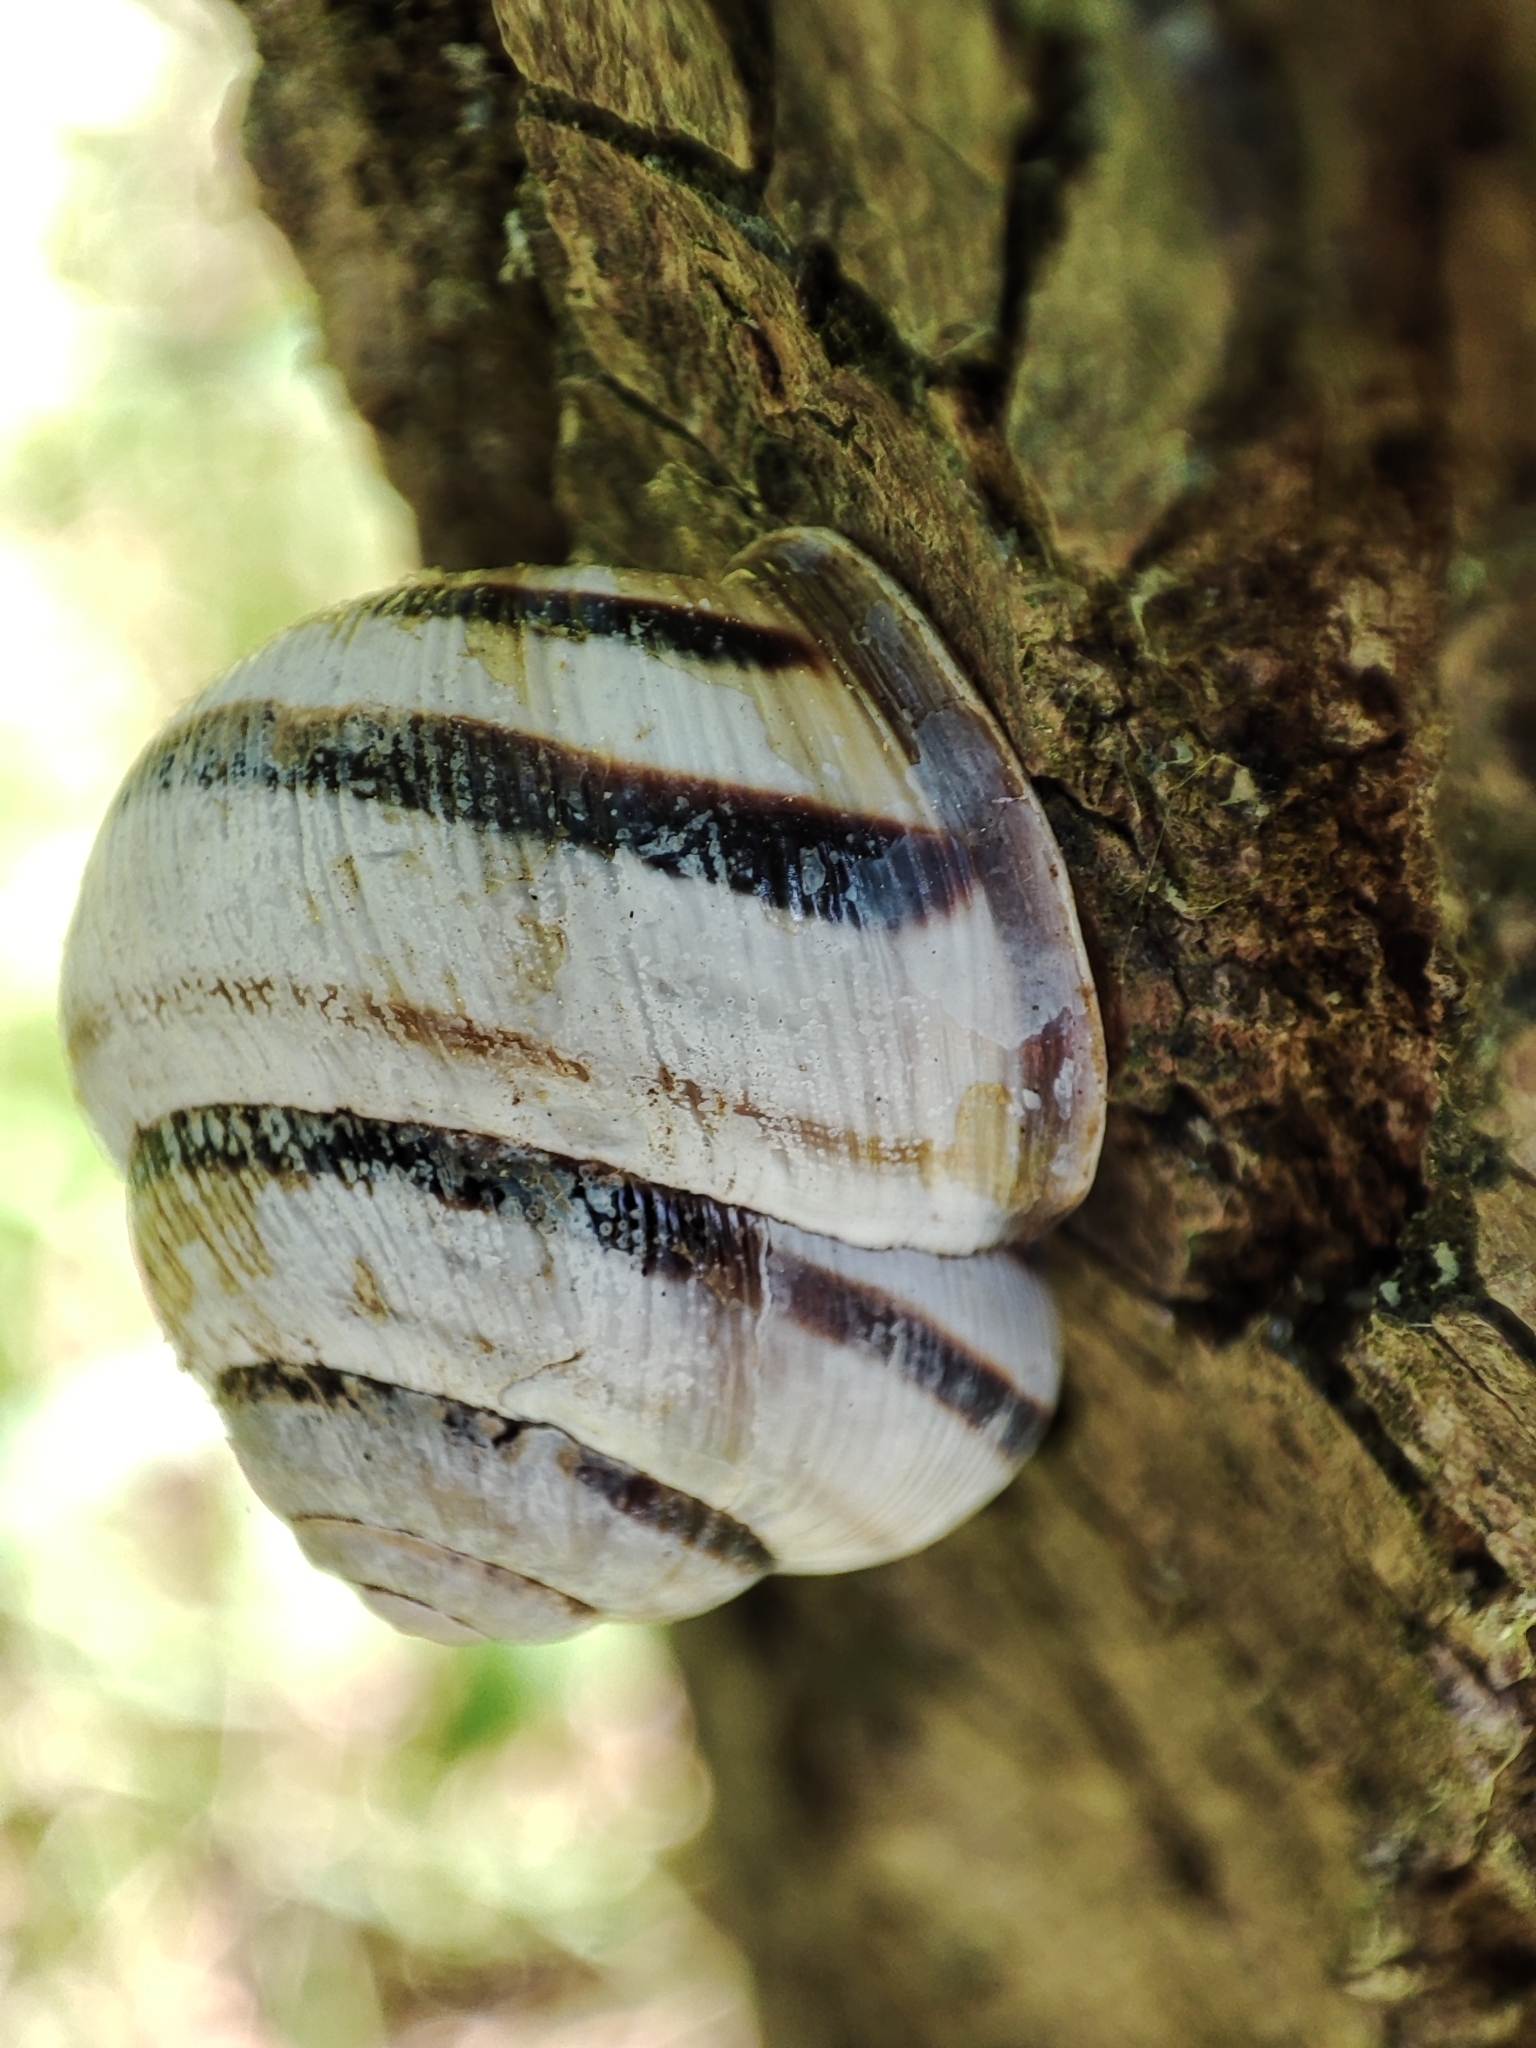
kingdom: Animalia
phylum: Mollusca
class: Gastropoda
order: Stylommatophora
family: Helicidae
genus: Caucasotachea
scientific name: Caucasotachea vindobonensis
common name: European helicid land snail
